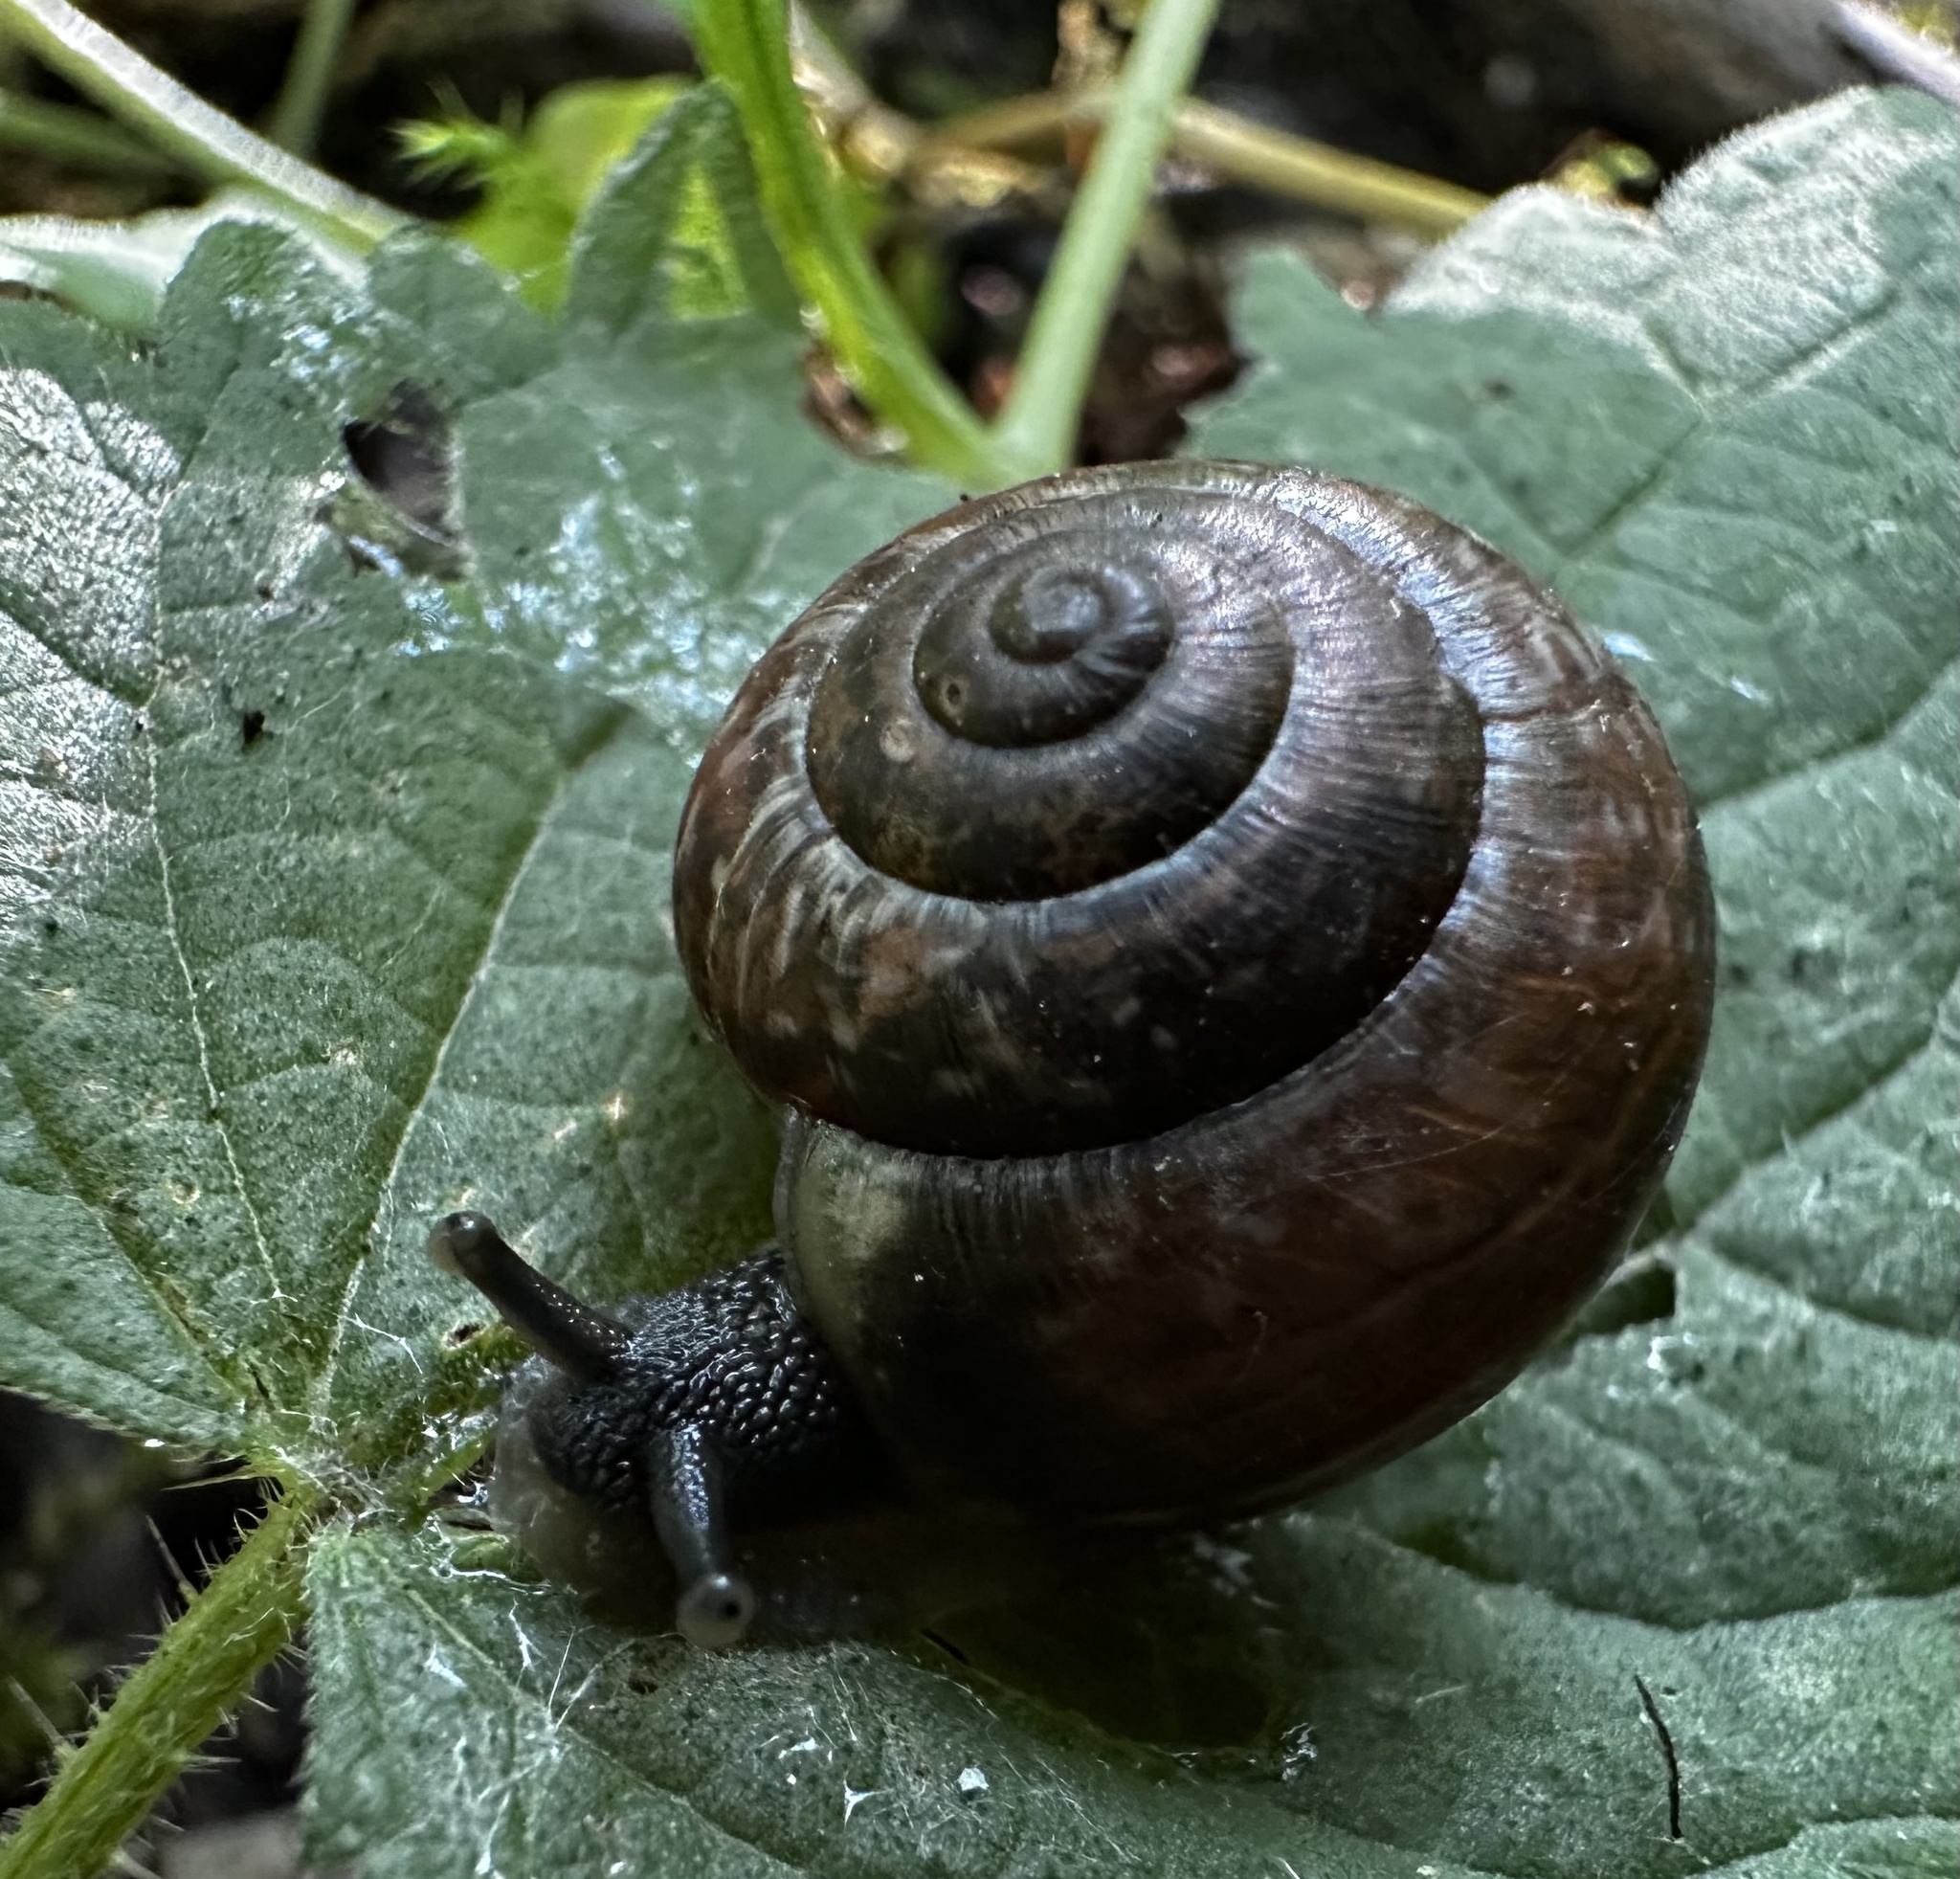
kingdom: Animalia
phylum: Mollusca
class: Gastropoda
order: Stylommatophora
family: Helicidae
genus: Arianta
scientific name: Arianta arbustorum
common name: Copse snail
